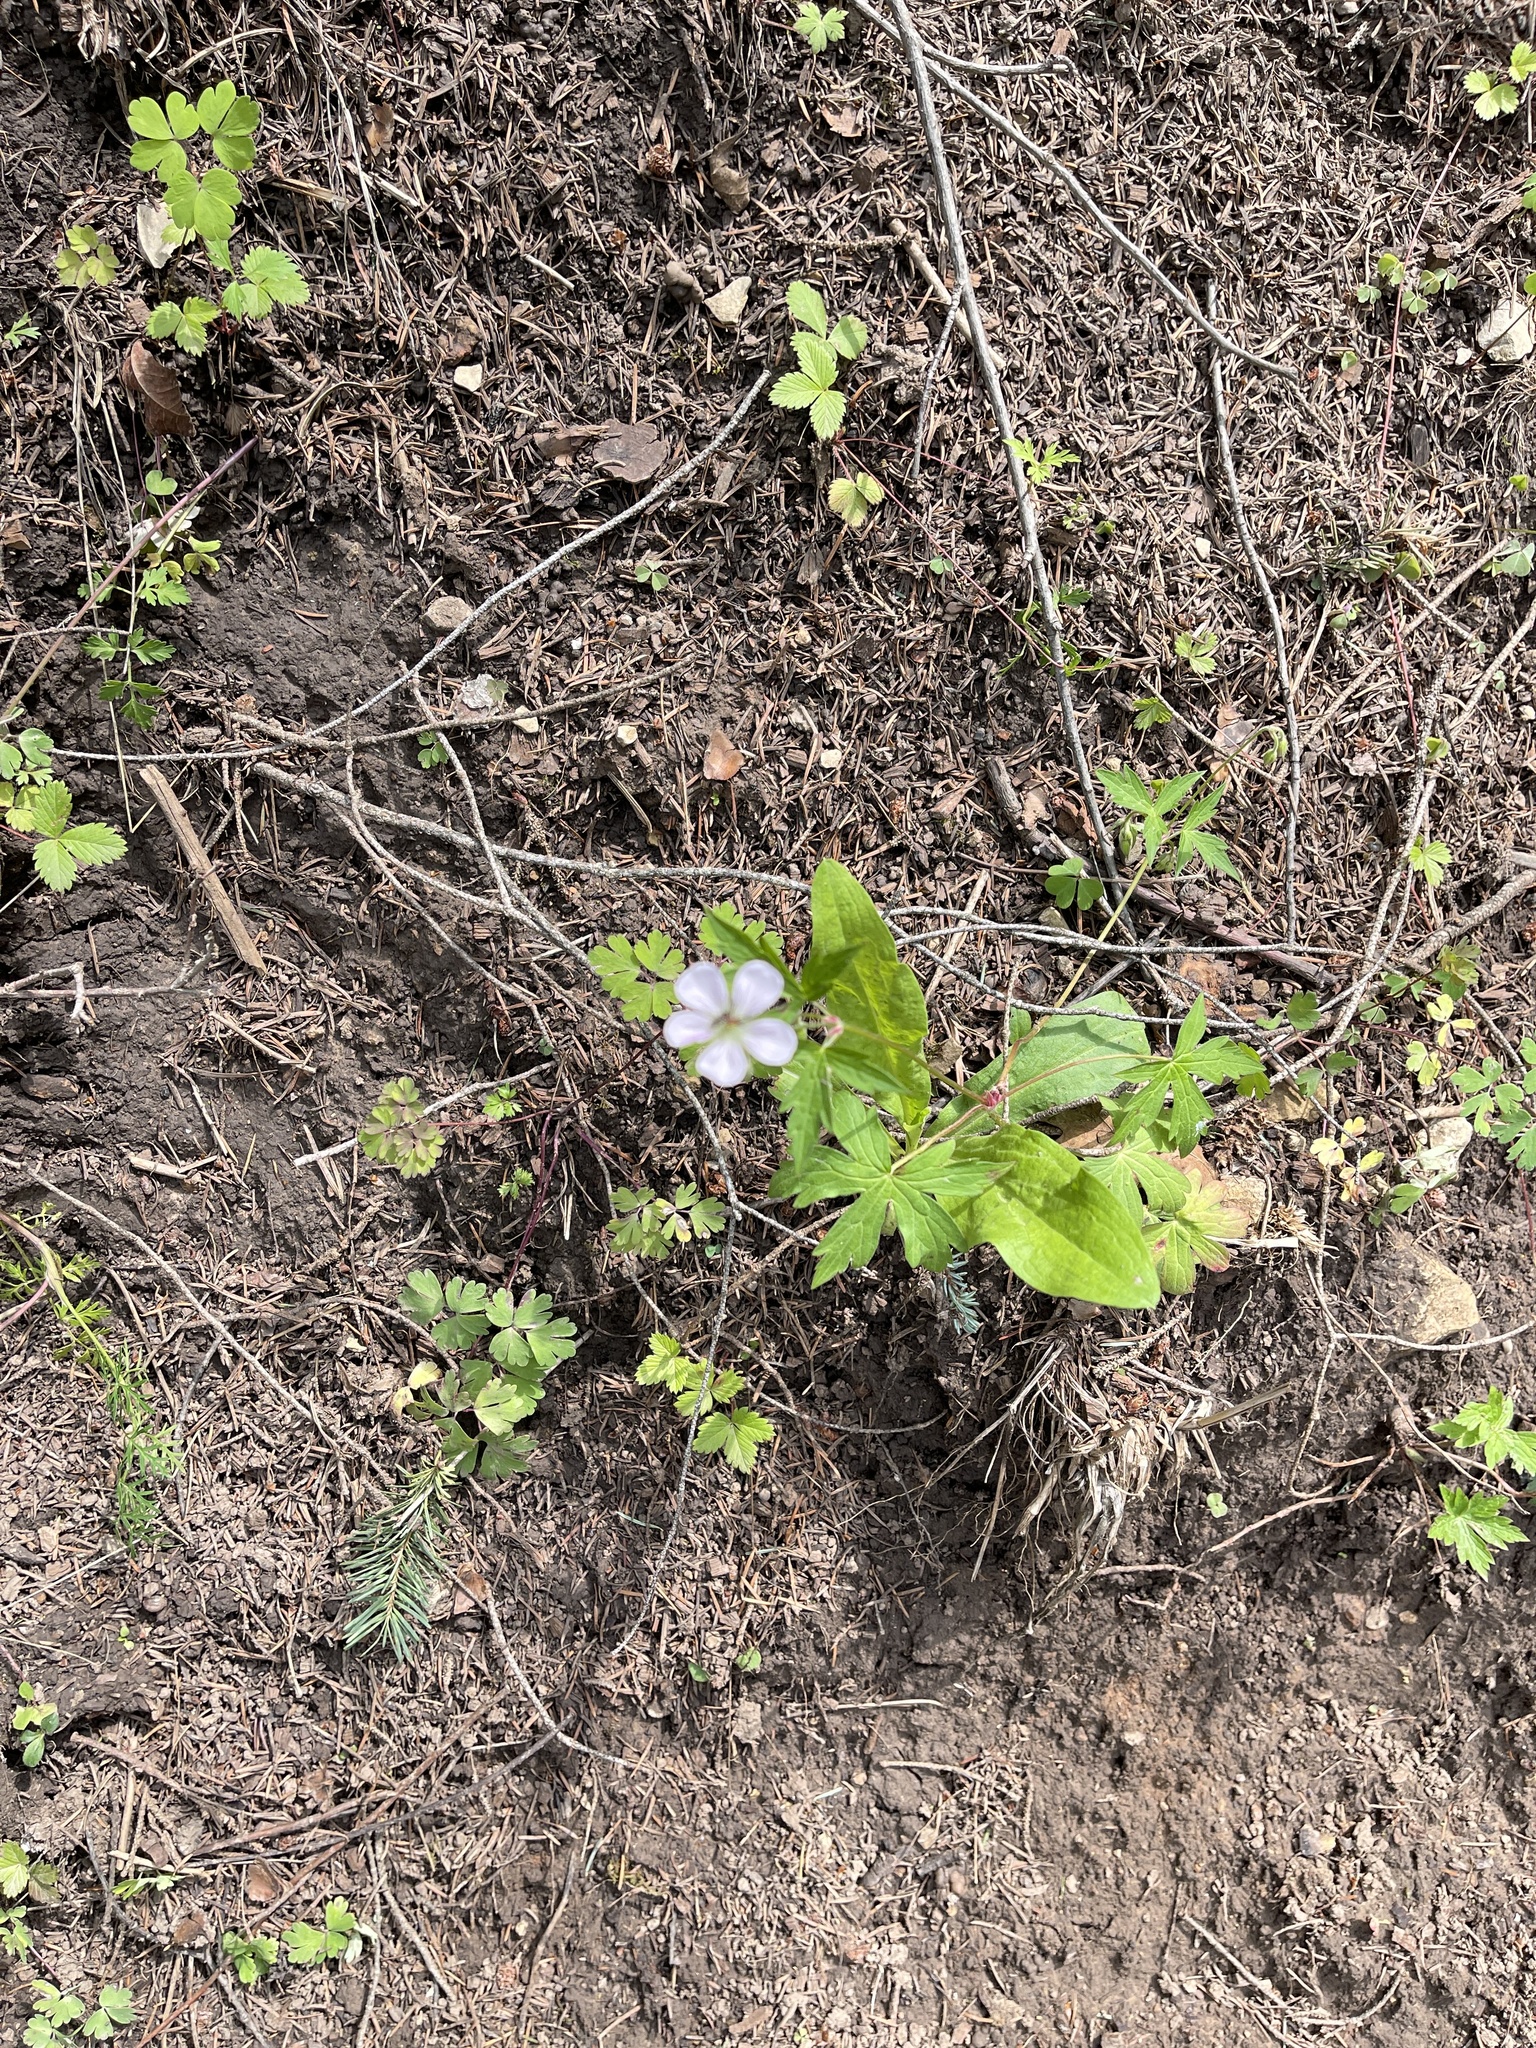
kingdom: Plantae
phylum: Tracheophyta
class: Magnoliopsida
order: Geraniales
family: Geraniaceae
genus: Geranium
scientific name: Geranium richardsonii
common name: Richardson's crane's-bill
